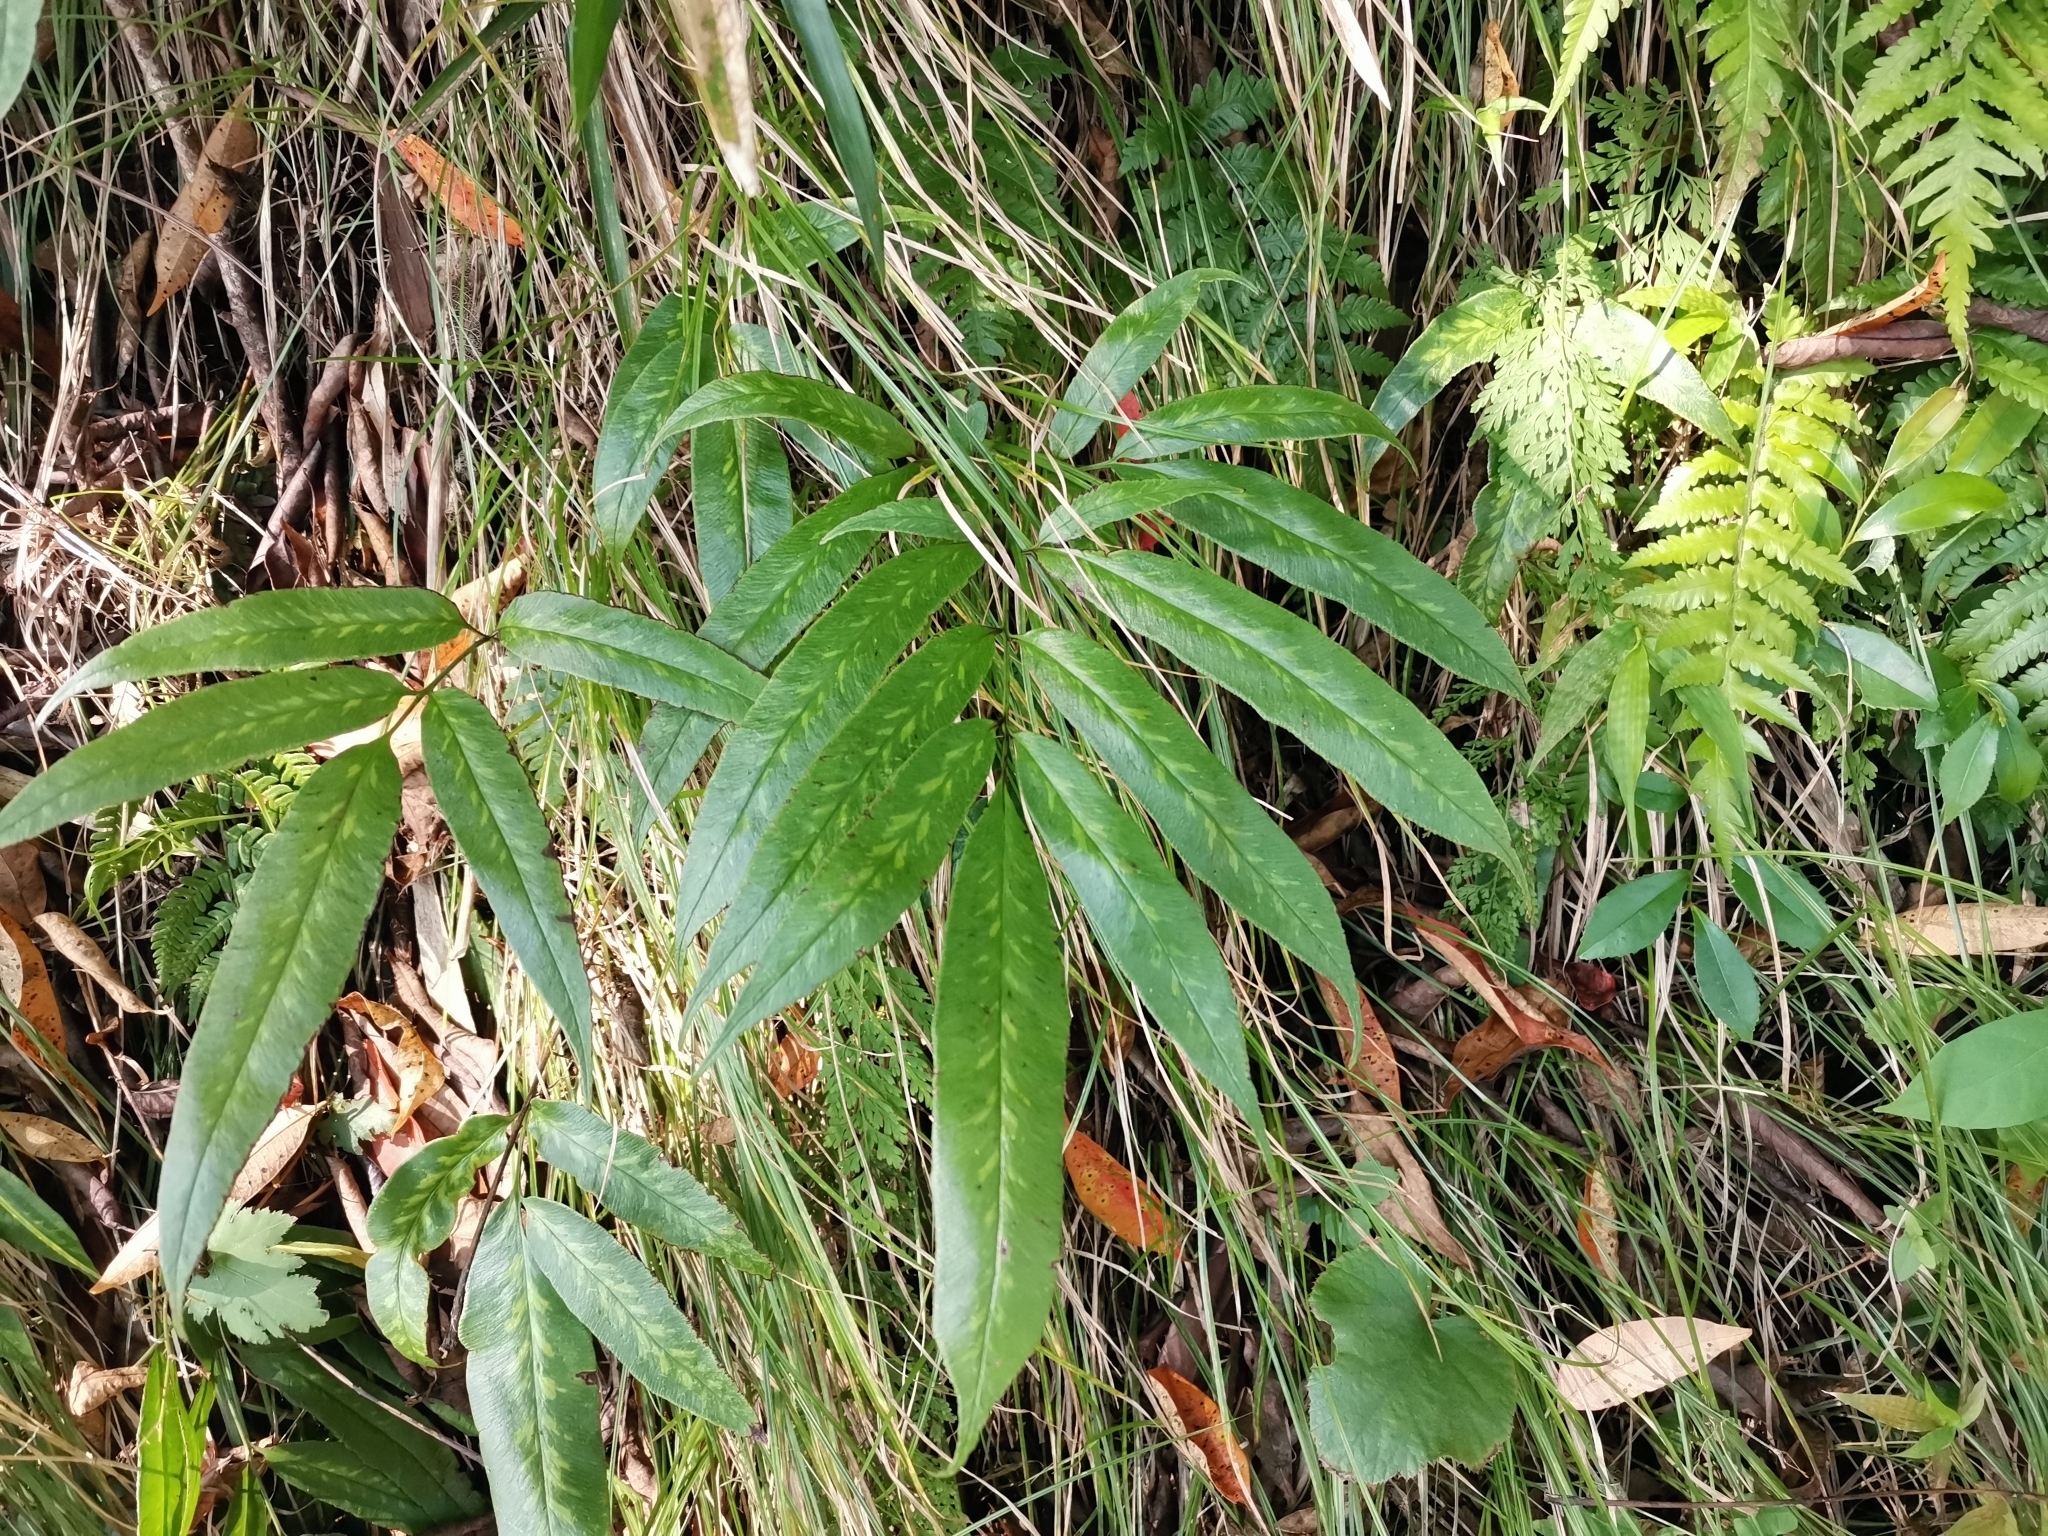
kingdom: Plantae
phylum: Tracheophyta
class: Polypodiopsida
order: Polypodiales
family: Pteridaceae
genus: Coniogramme
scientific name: Coniogramme japonica
